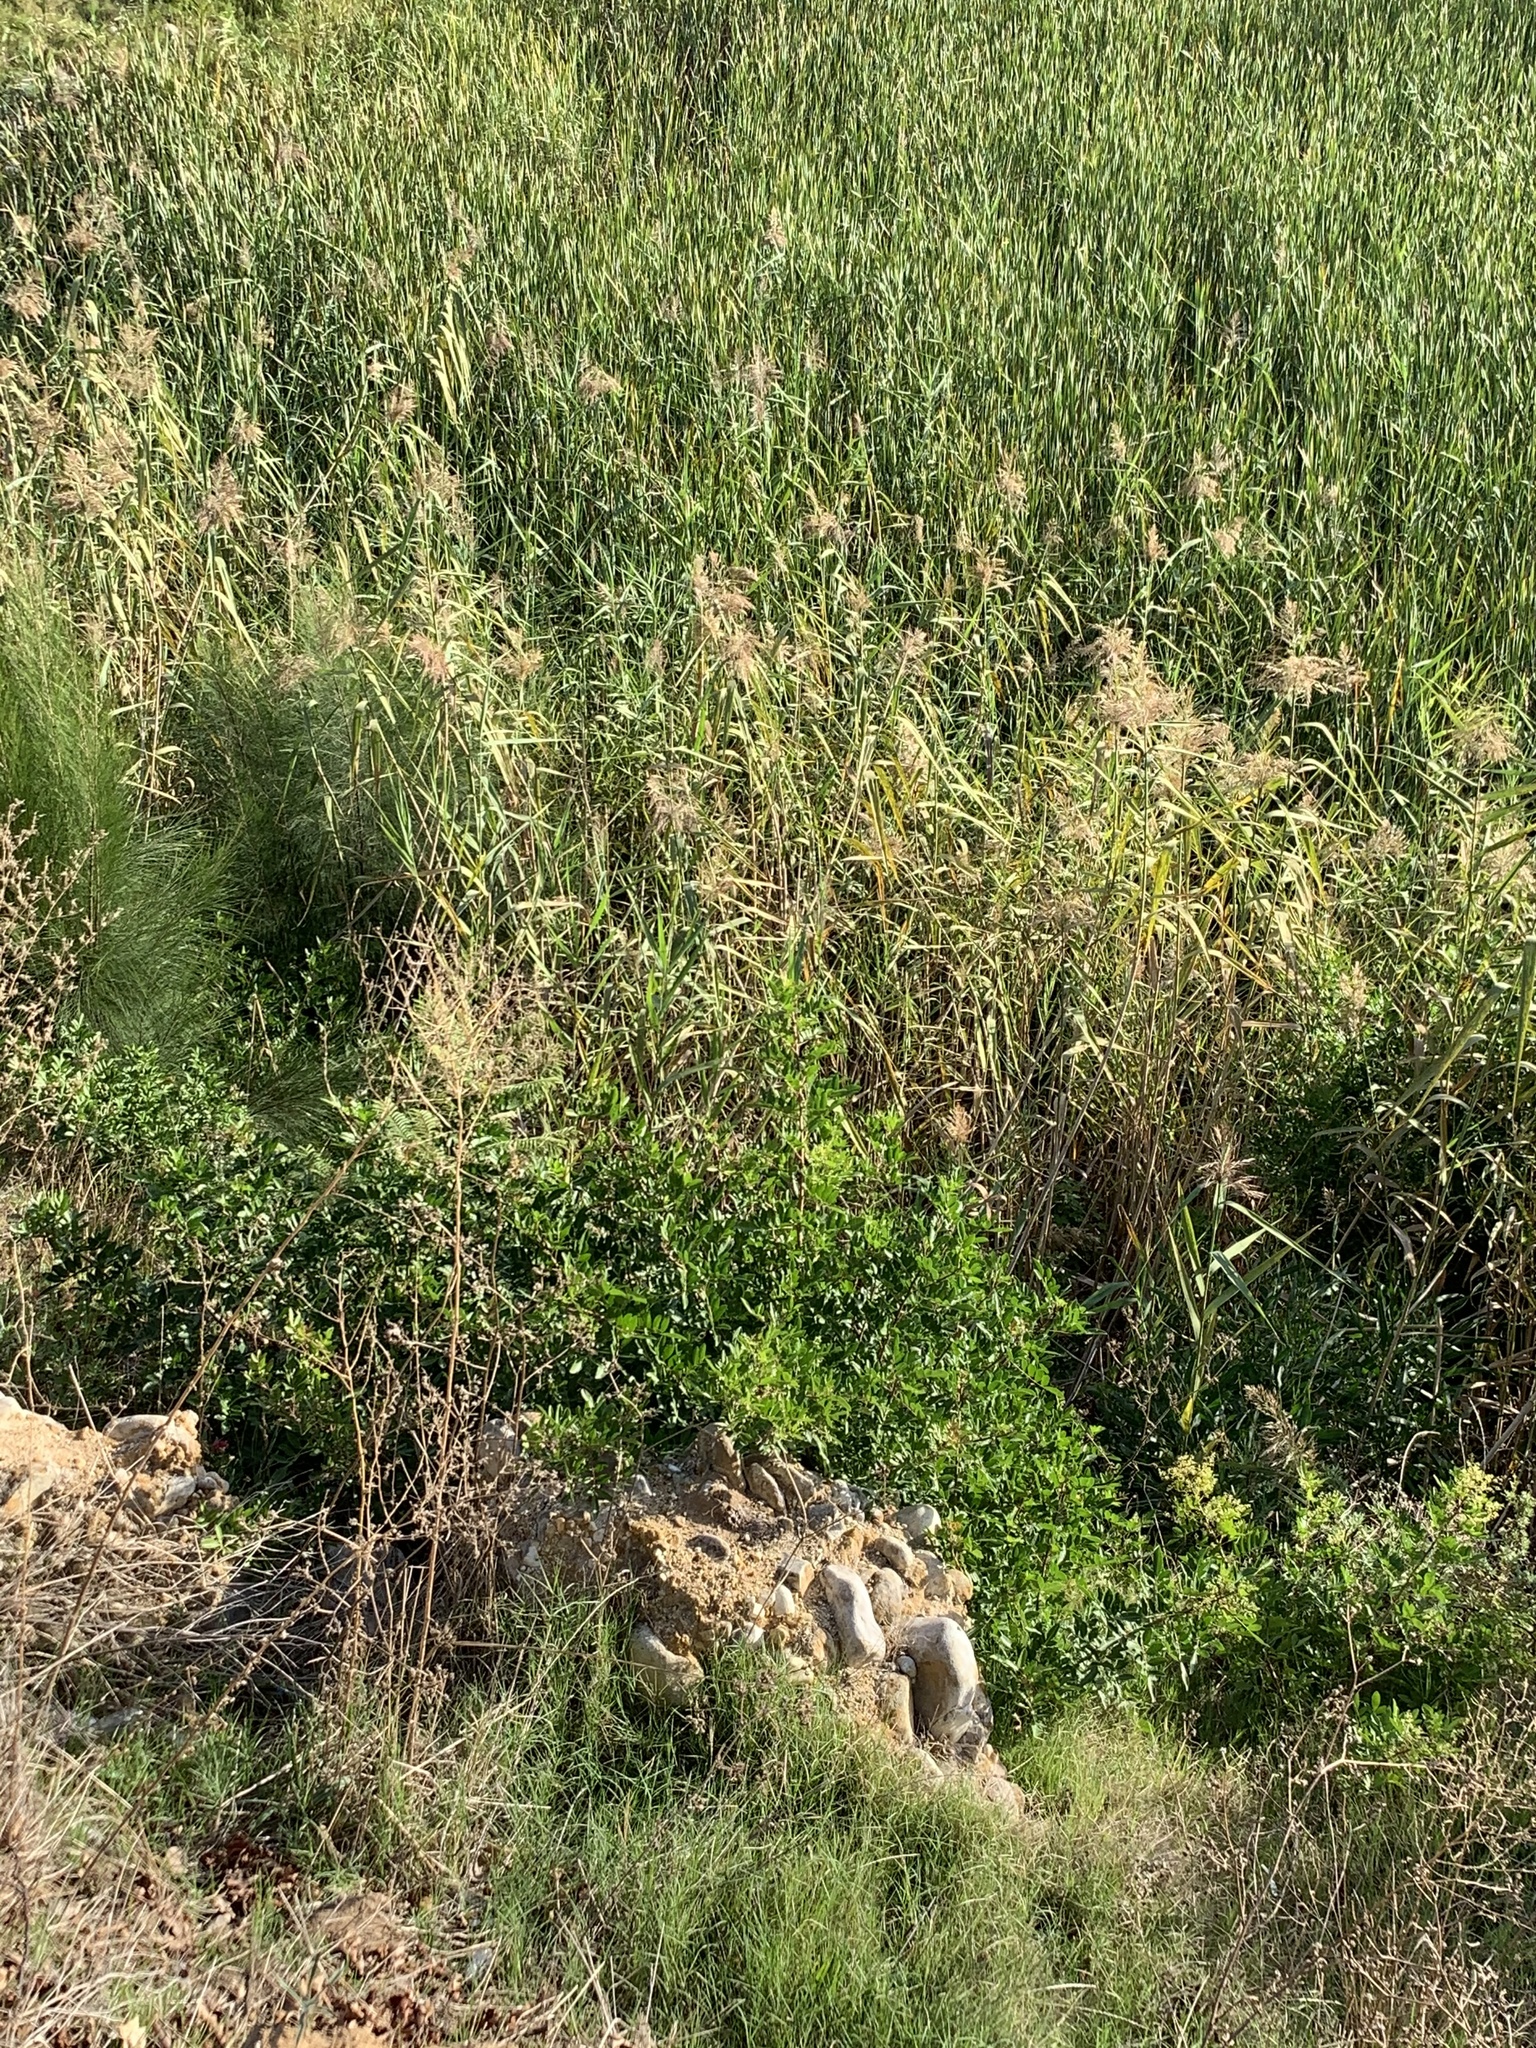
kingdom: Plantae
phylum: Tracheophyta
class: Magnoliopsida
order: Sapindales
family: Anacardiaceae
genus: Schinus
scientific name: Schinus terebinthifolia
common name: Brazilian peppertree
